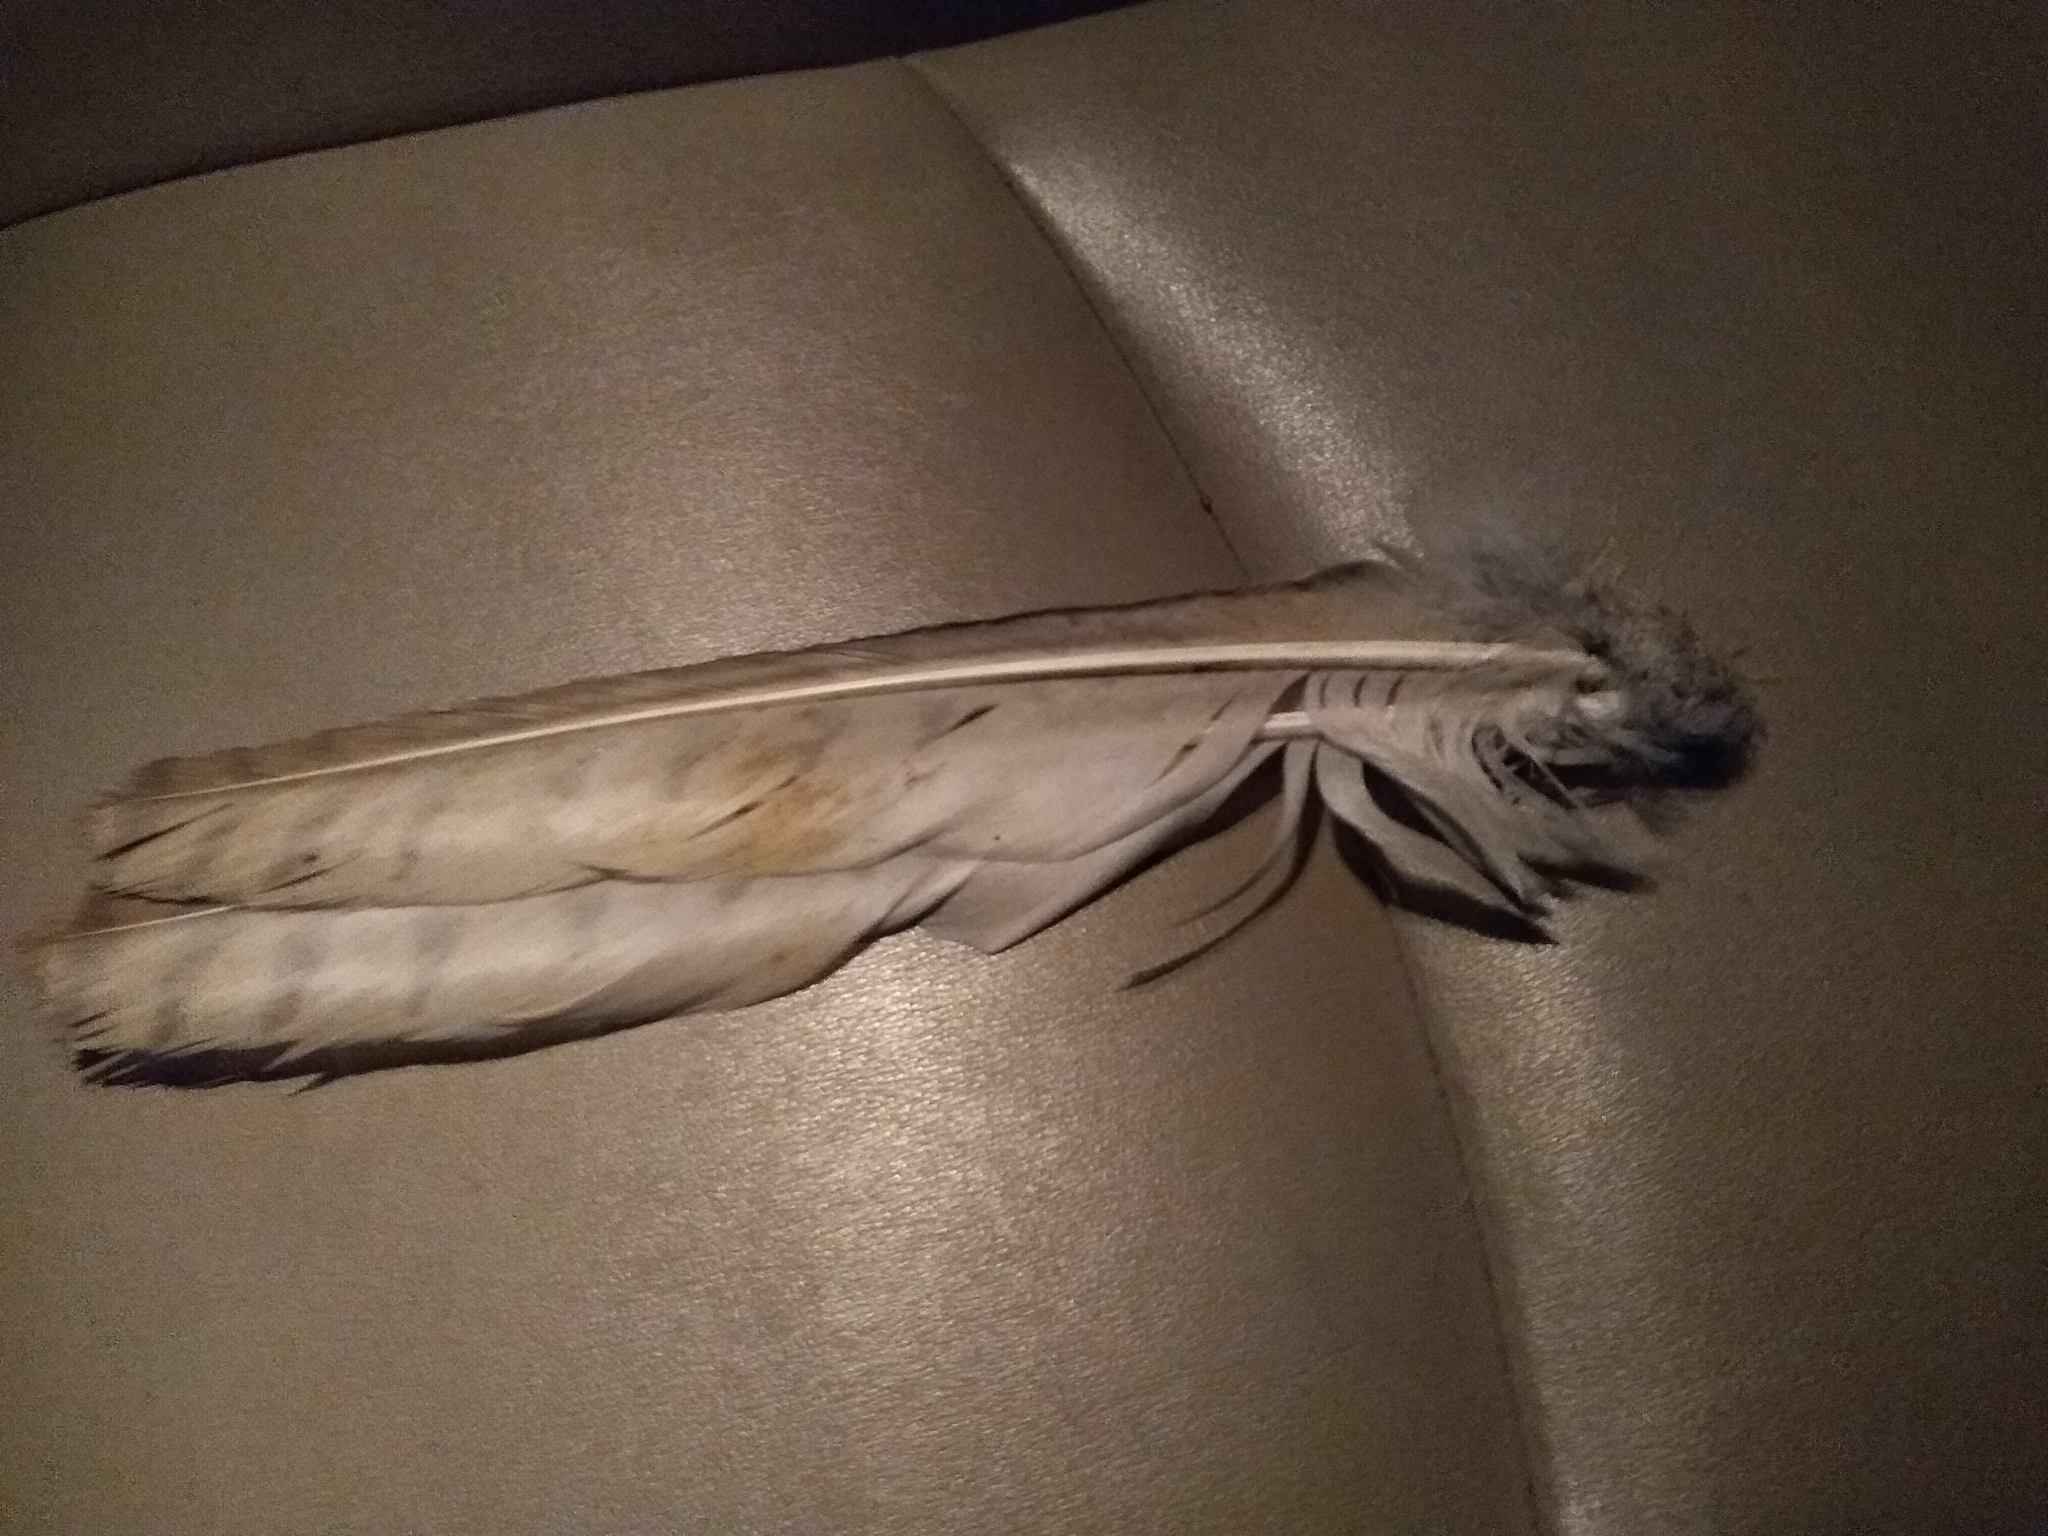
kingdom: Animalia
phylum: Chordata
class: Aves
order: Accipitriformes
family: Accipitridae
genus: Buteo
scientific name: Buteo jamaicensis
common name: Red-tailed hawk
